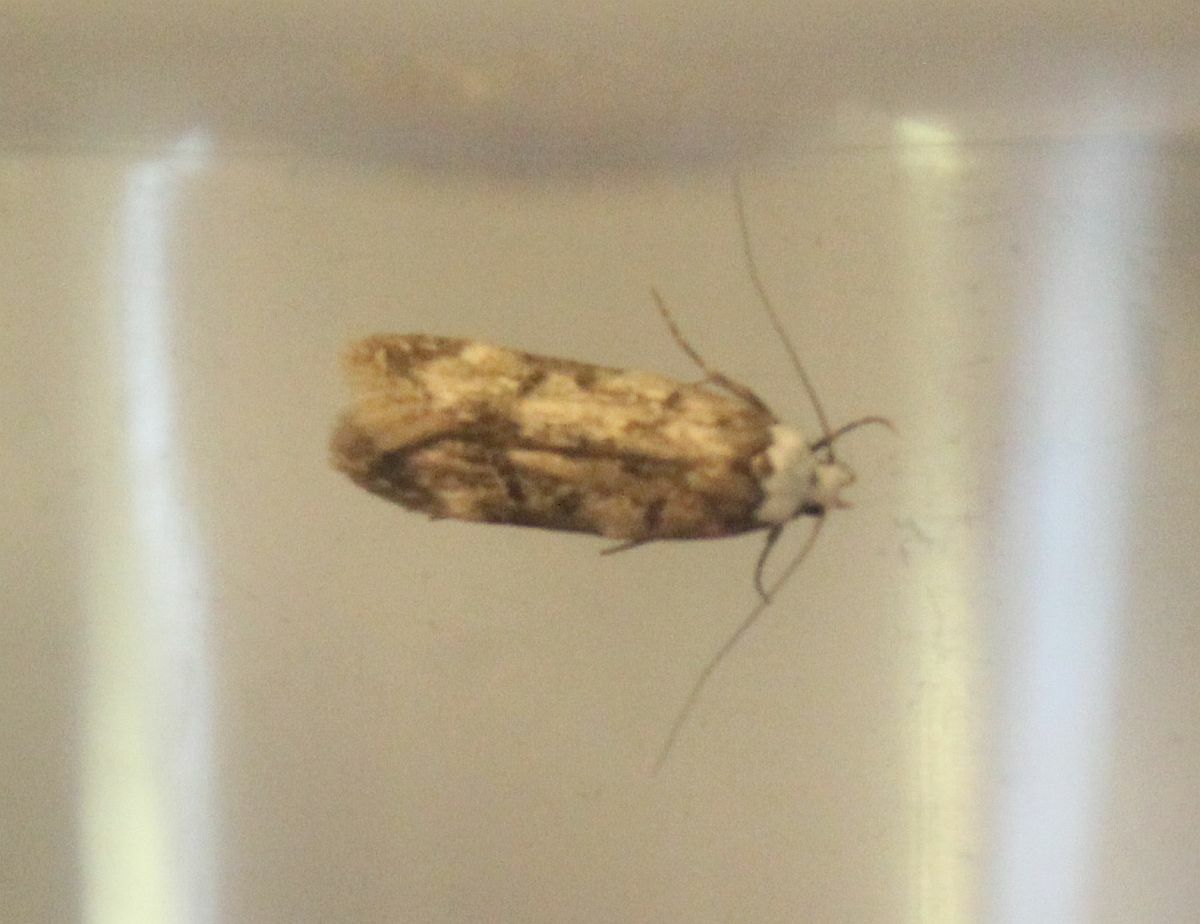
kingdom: Animalia
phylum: Arthropoda
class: Insecta
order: Lepidoptera
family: Oecophoridae
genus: Endrosis
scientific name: Endrosis sarcitrella
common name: White-shouldered house moth
